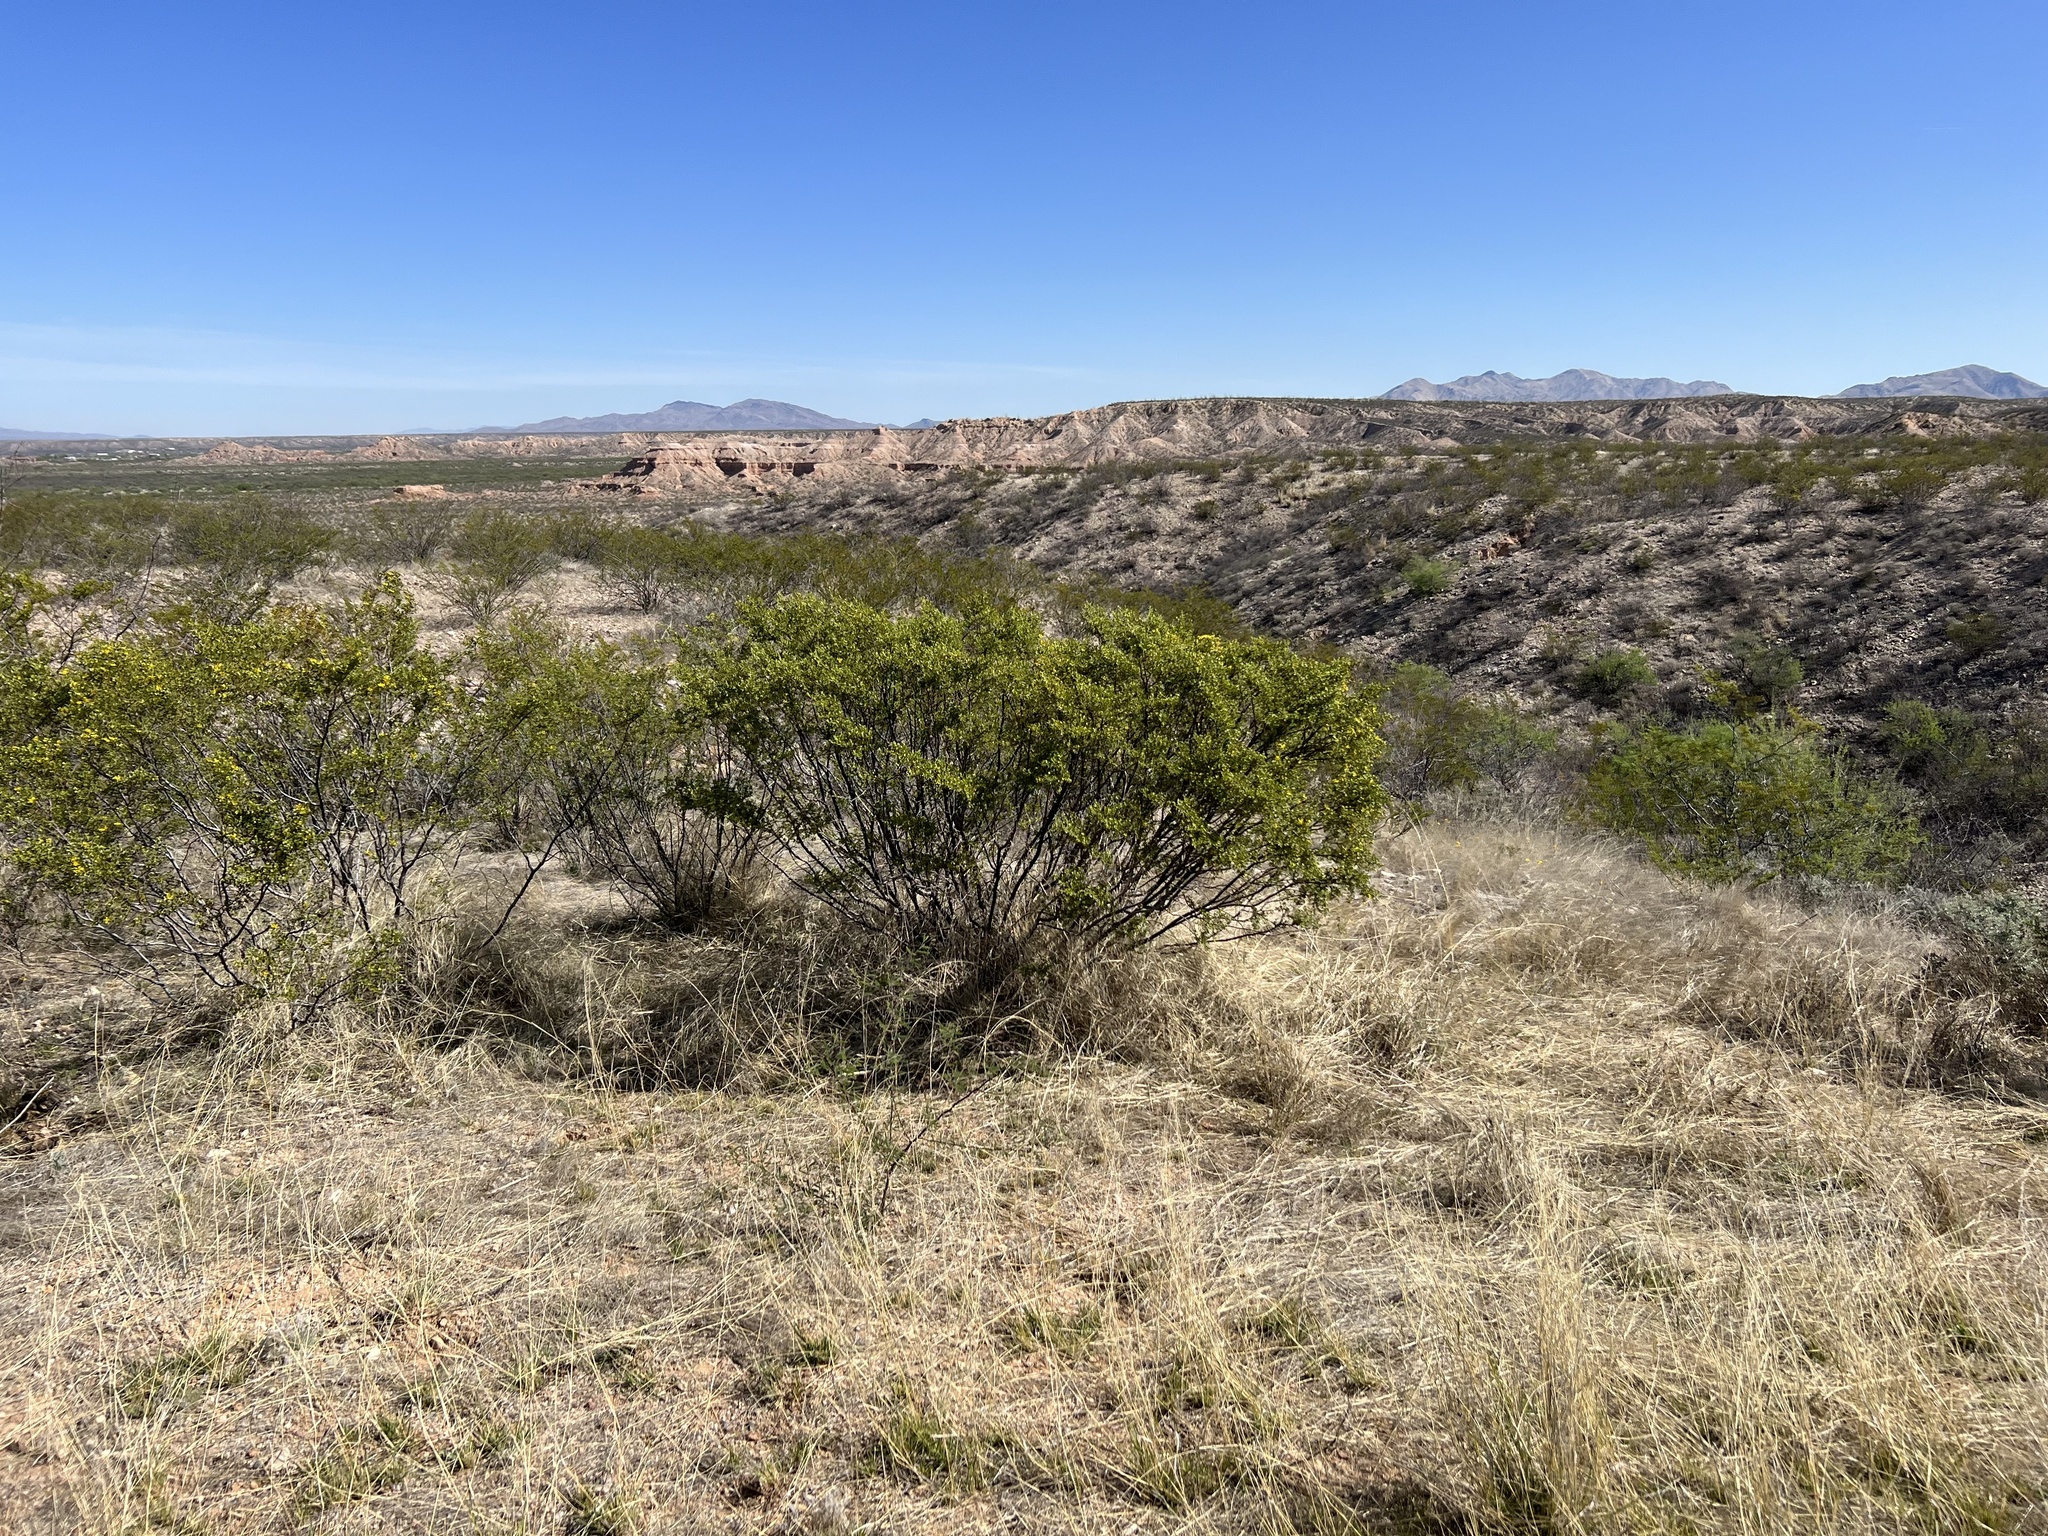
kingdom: Plantae
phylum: Tracheophyta
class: Magnoliopsida
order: Zygophyllales
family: Zygophyllaceae
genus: Larrea
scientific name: Larrea tridentata
